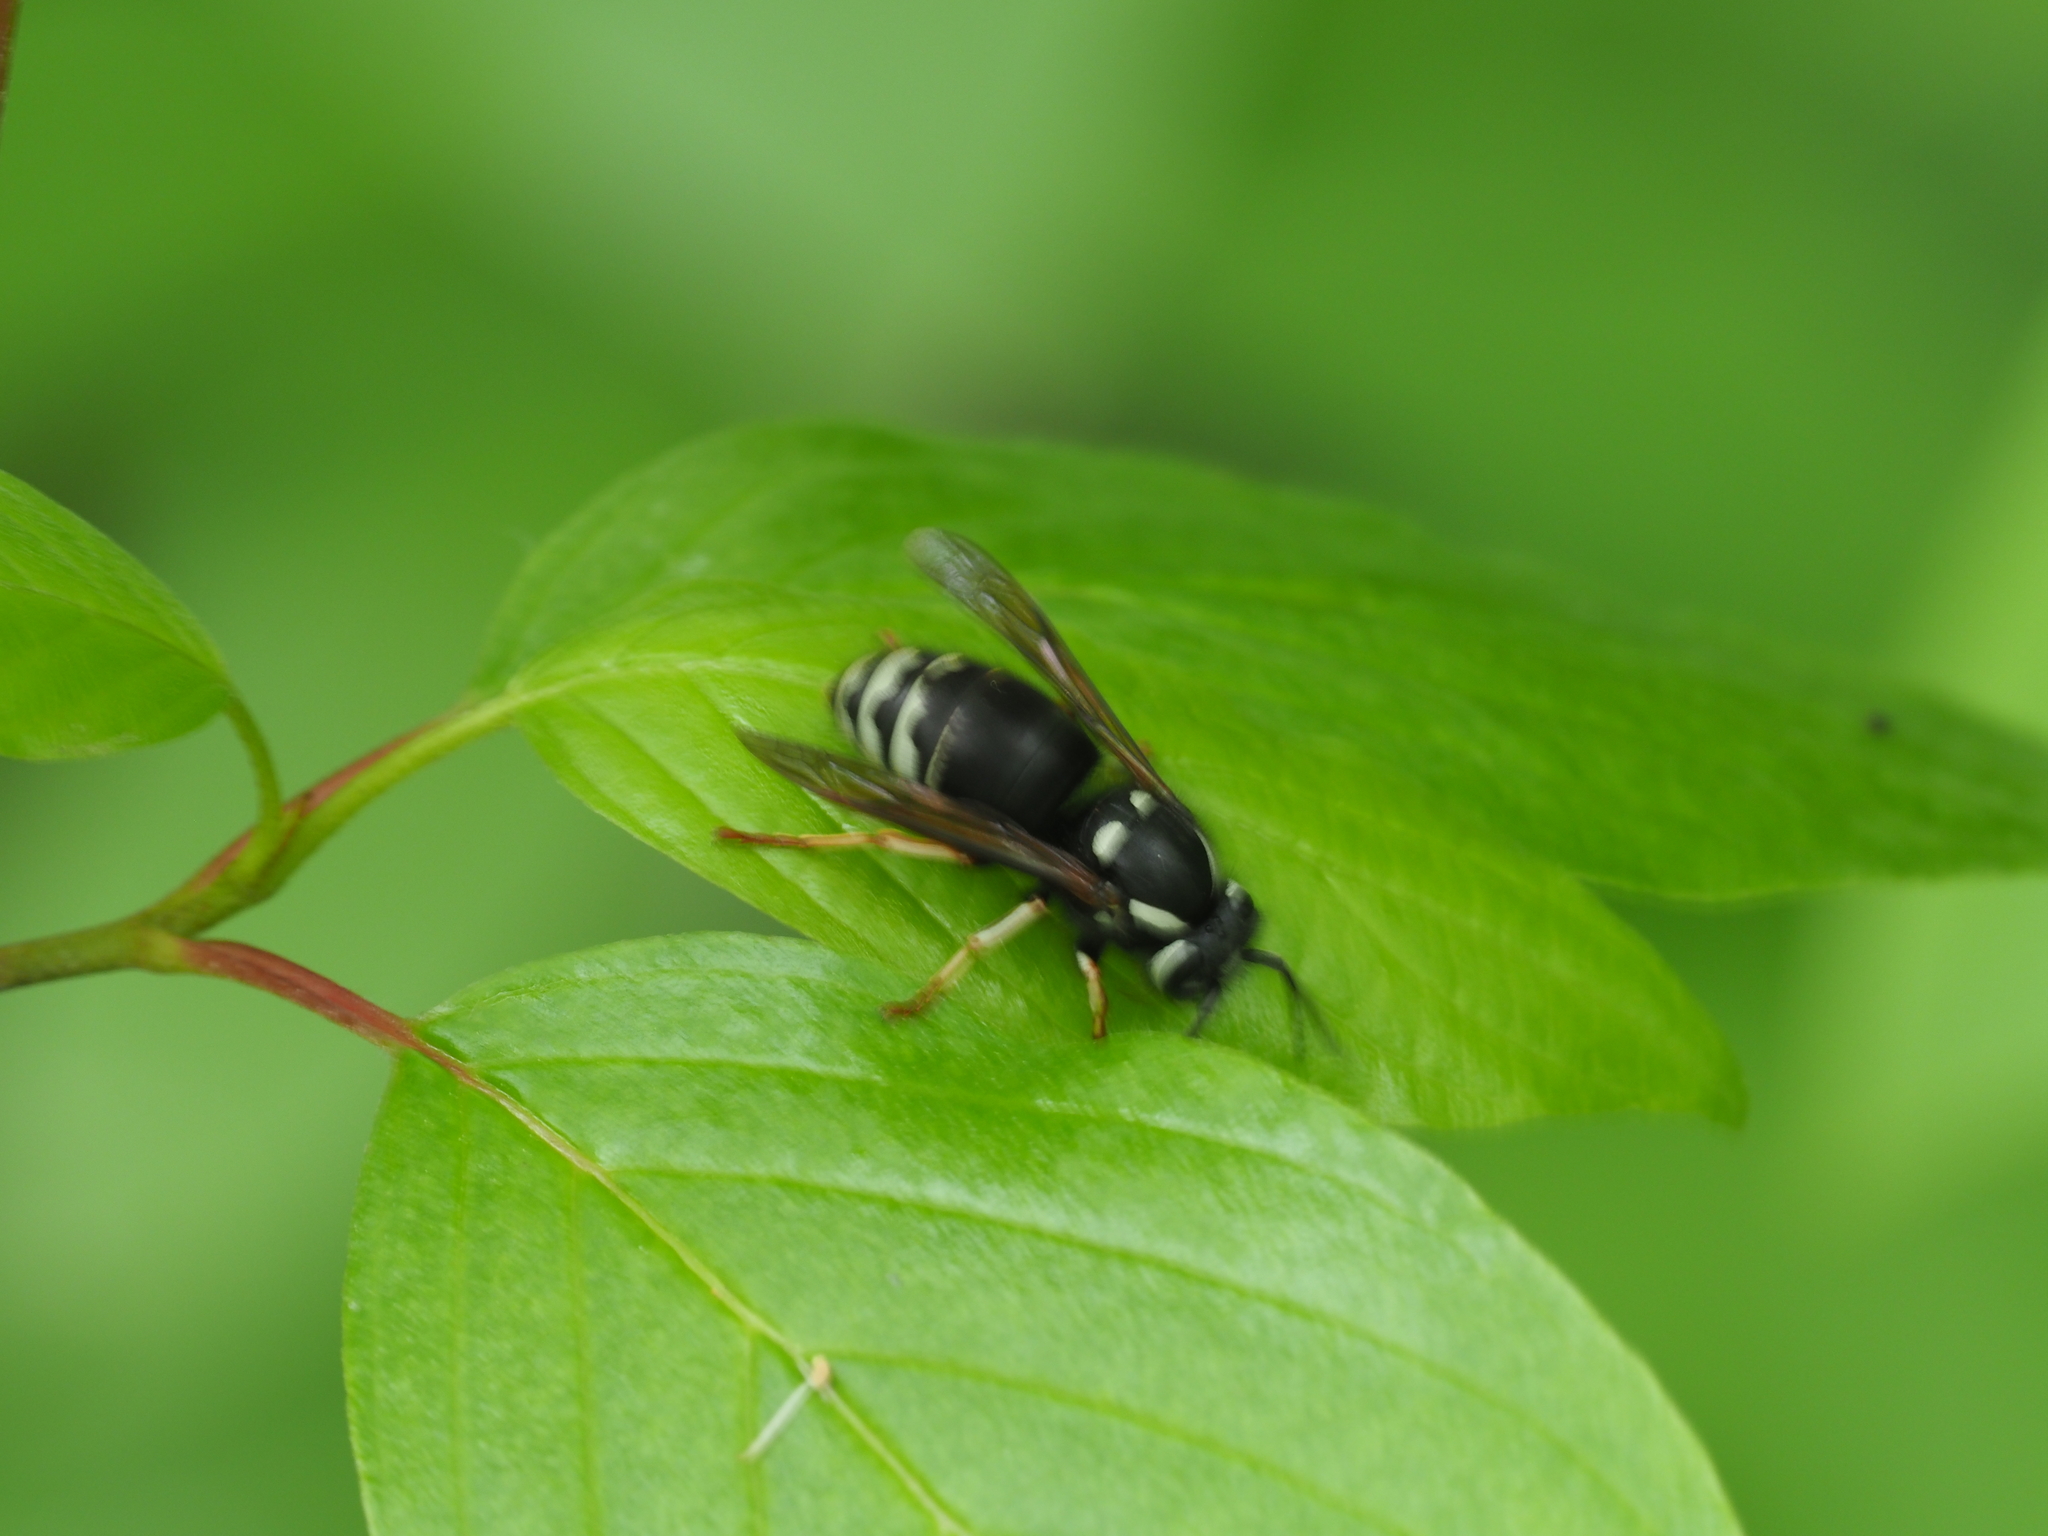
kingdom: Animalia
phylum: Arthropoda
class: Insecta
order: Hymenoptera
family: Vespidae
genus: Dolichovespula
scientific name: Dolichovespula maculata
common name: Bald-faced hornet
